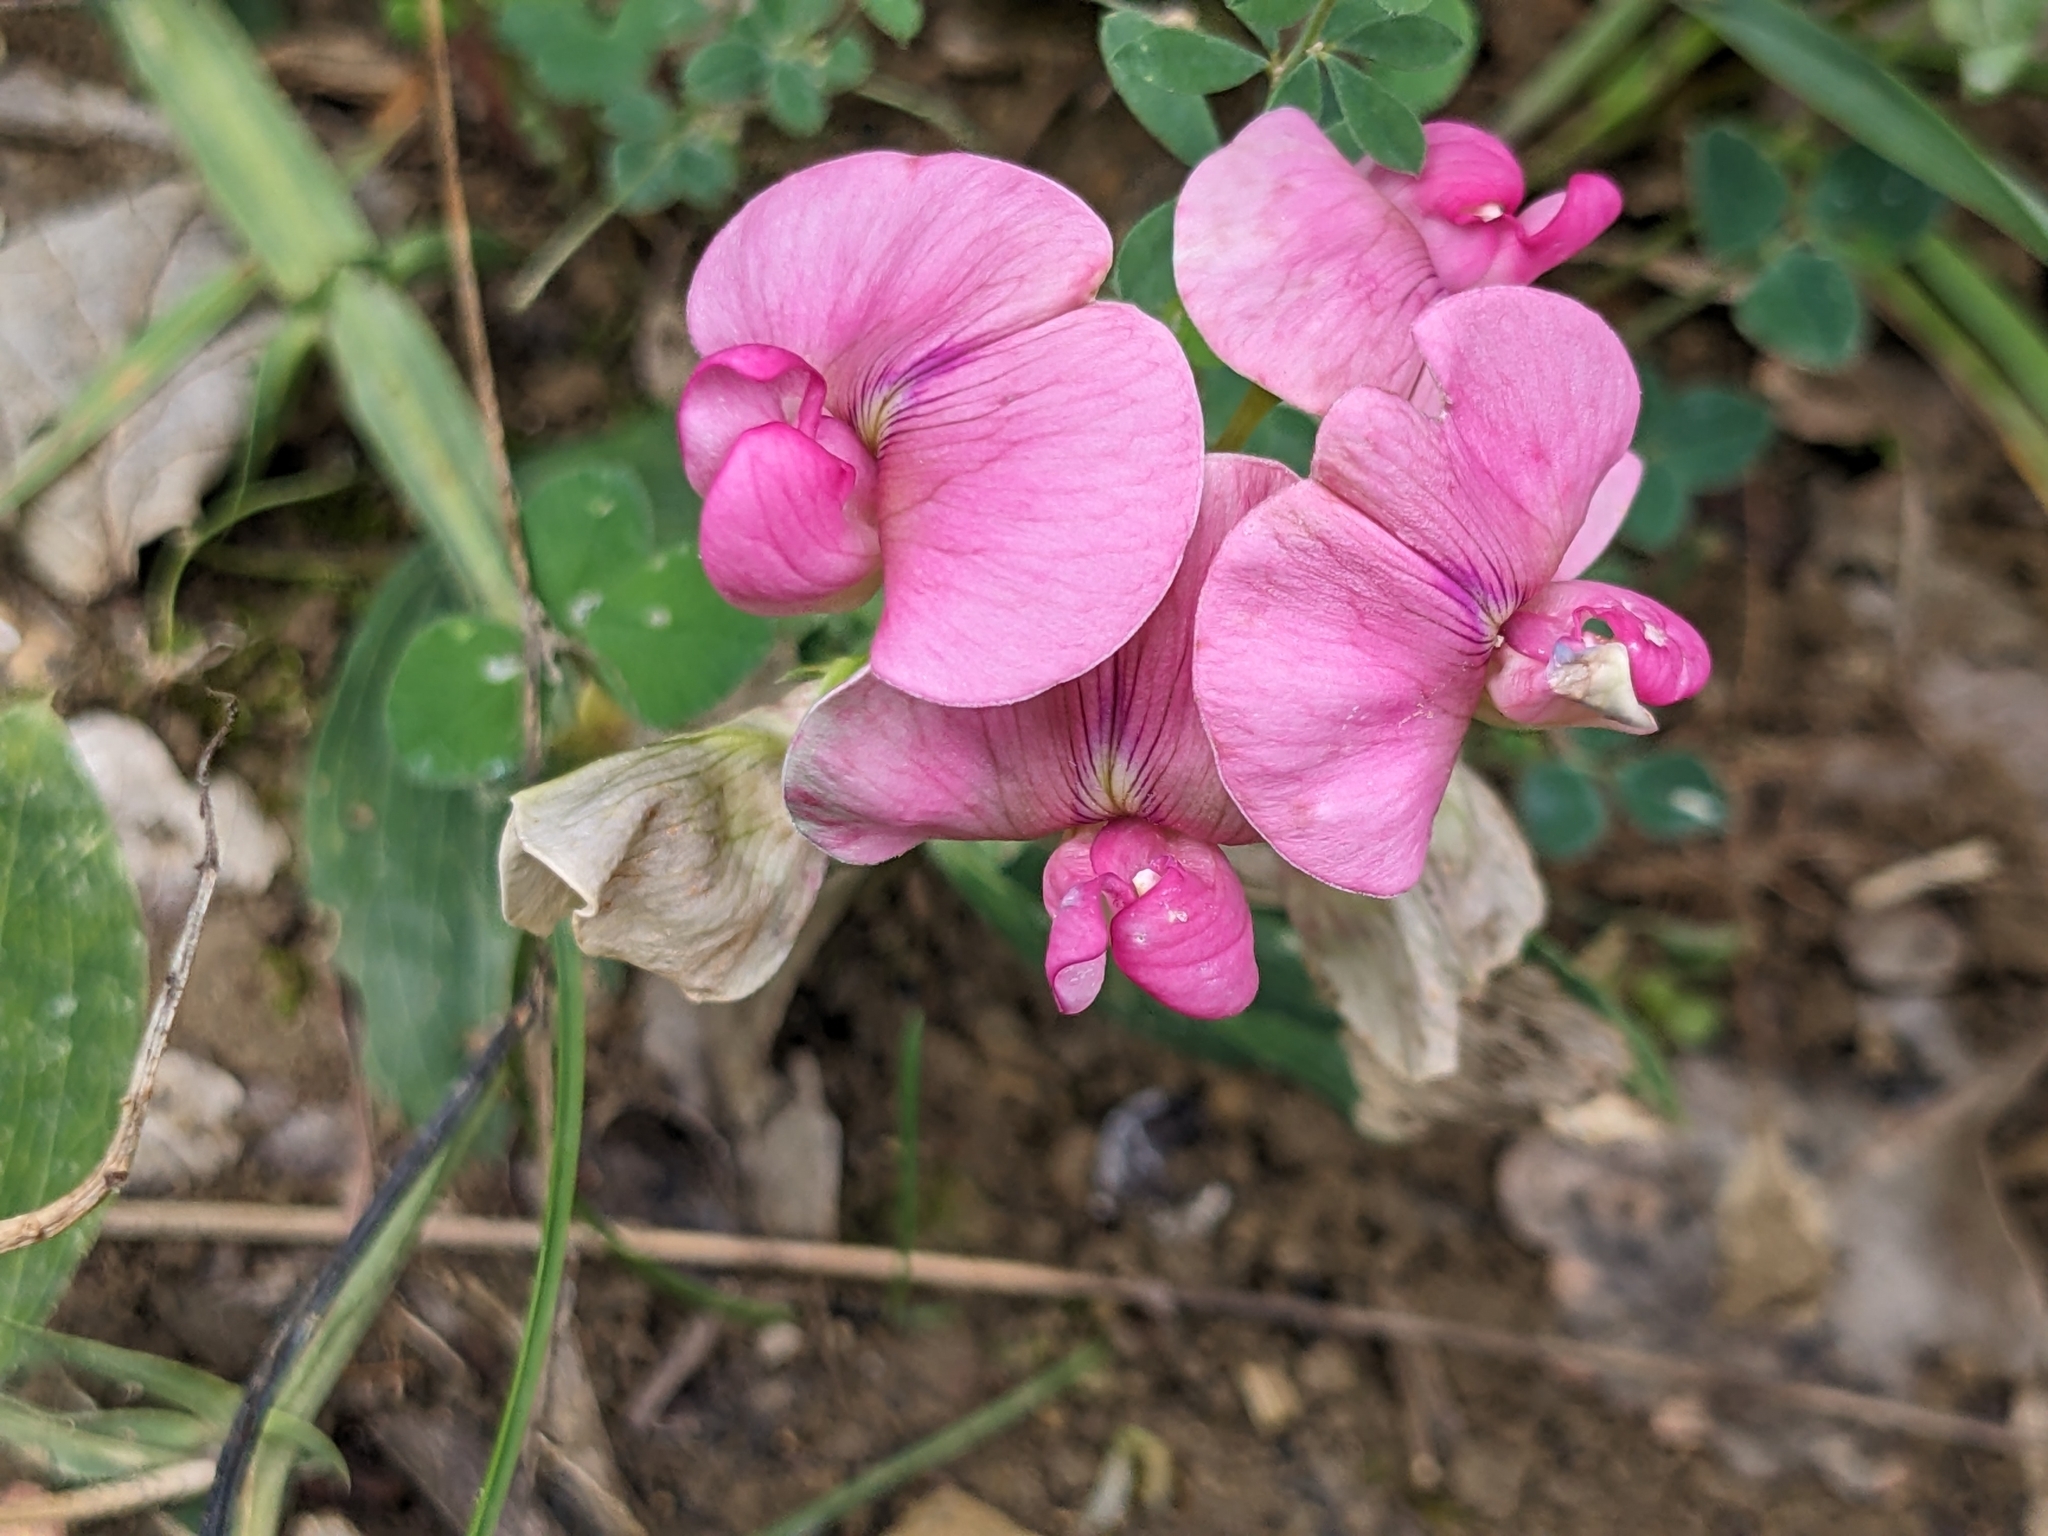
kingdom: Plantae
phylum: Tracheophyta
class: Magnoliopsida
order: Fabales
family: Fabaceae
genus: Lathyrus
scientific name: Lathyrus latifolius
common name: Perennial pea
